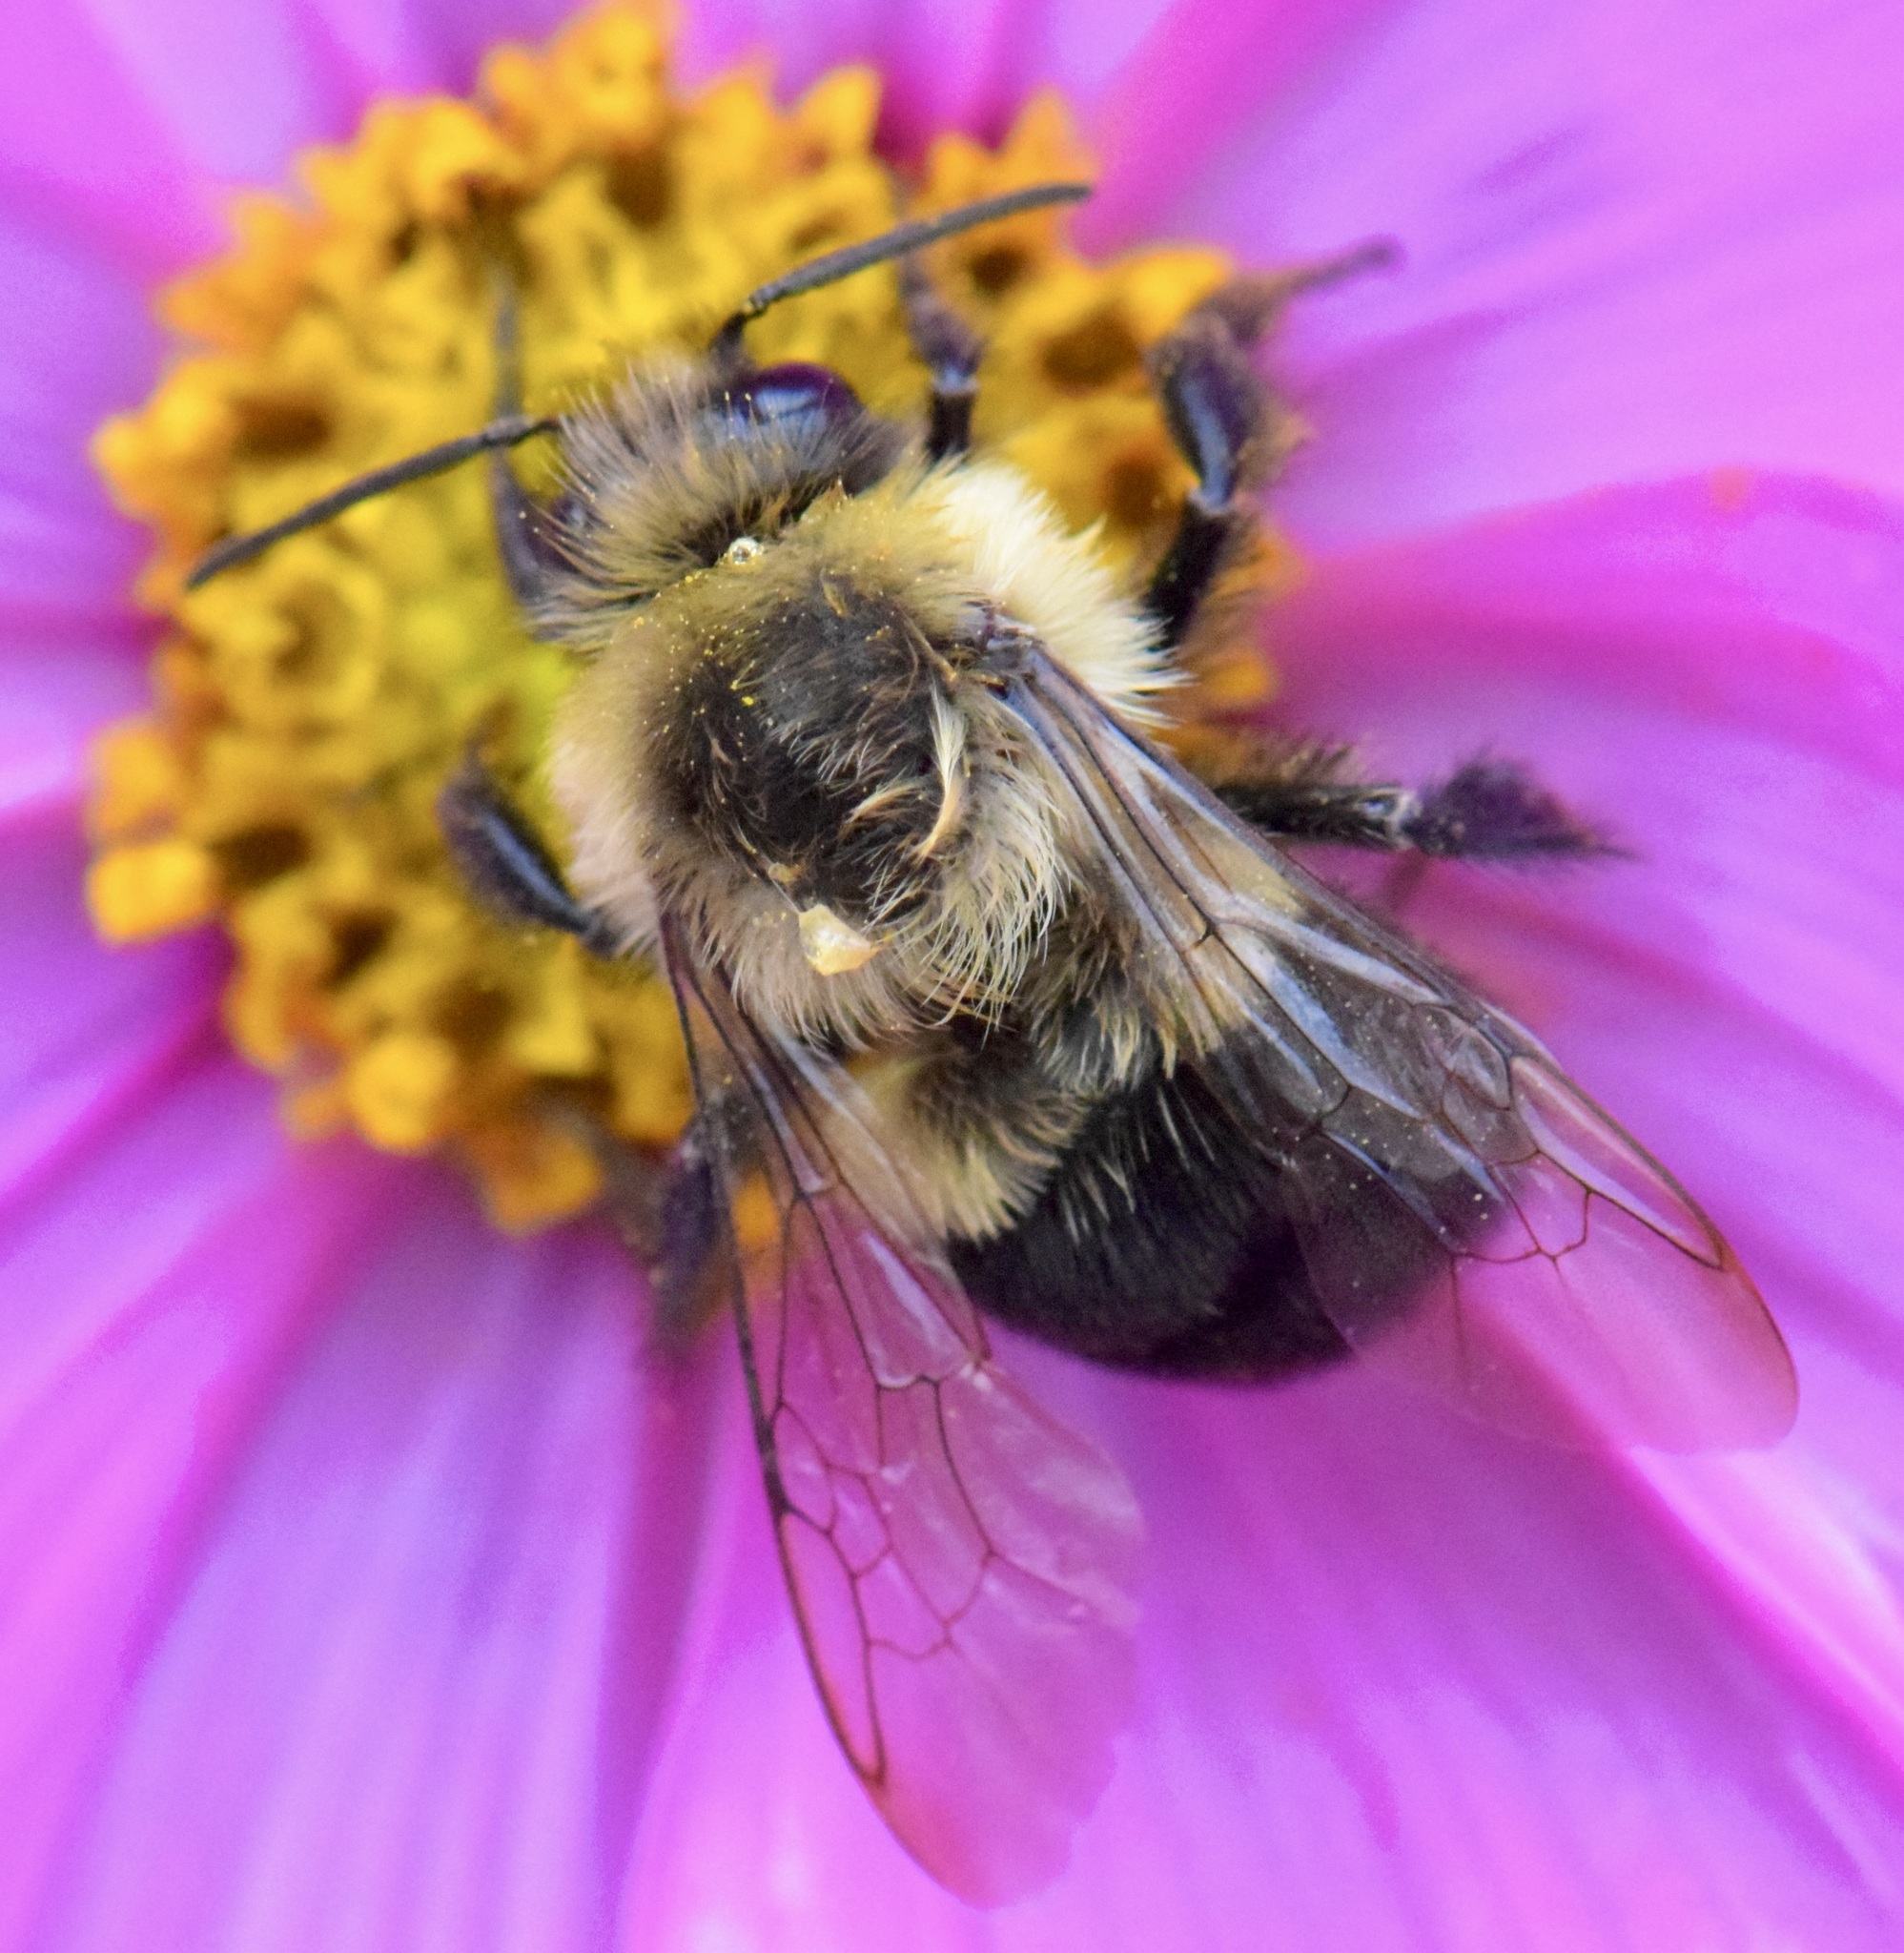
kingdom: Animalia
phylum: Arthropoda
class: Insecta
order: Hymenoptera
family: Apidae
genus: Bombus
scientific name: Bombus impatiens
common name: Common eastern bumble bee
